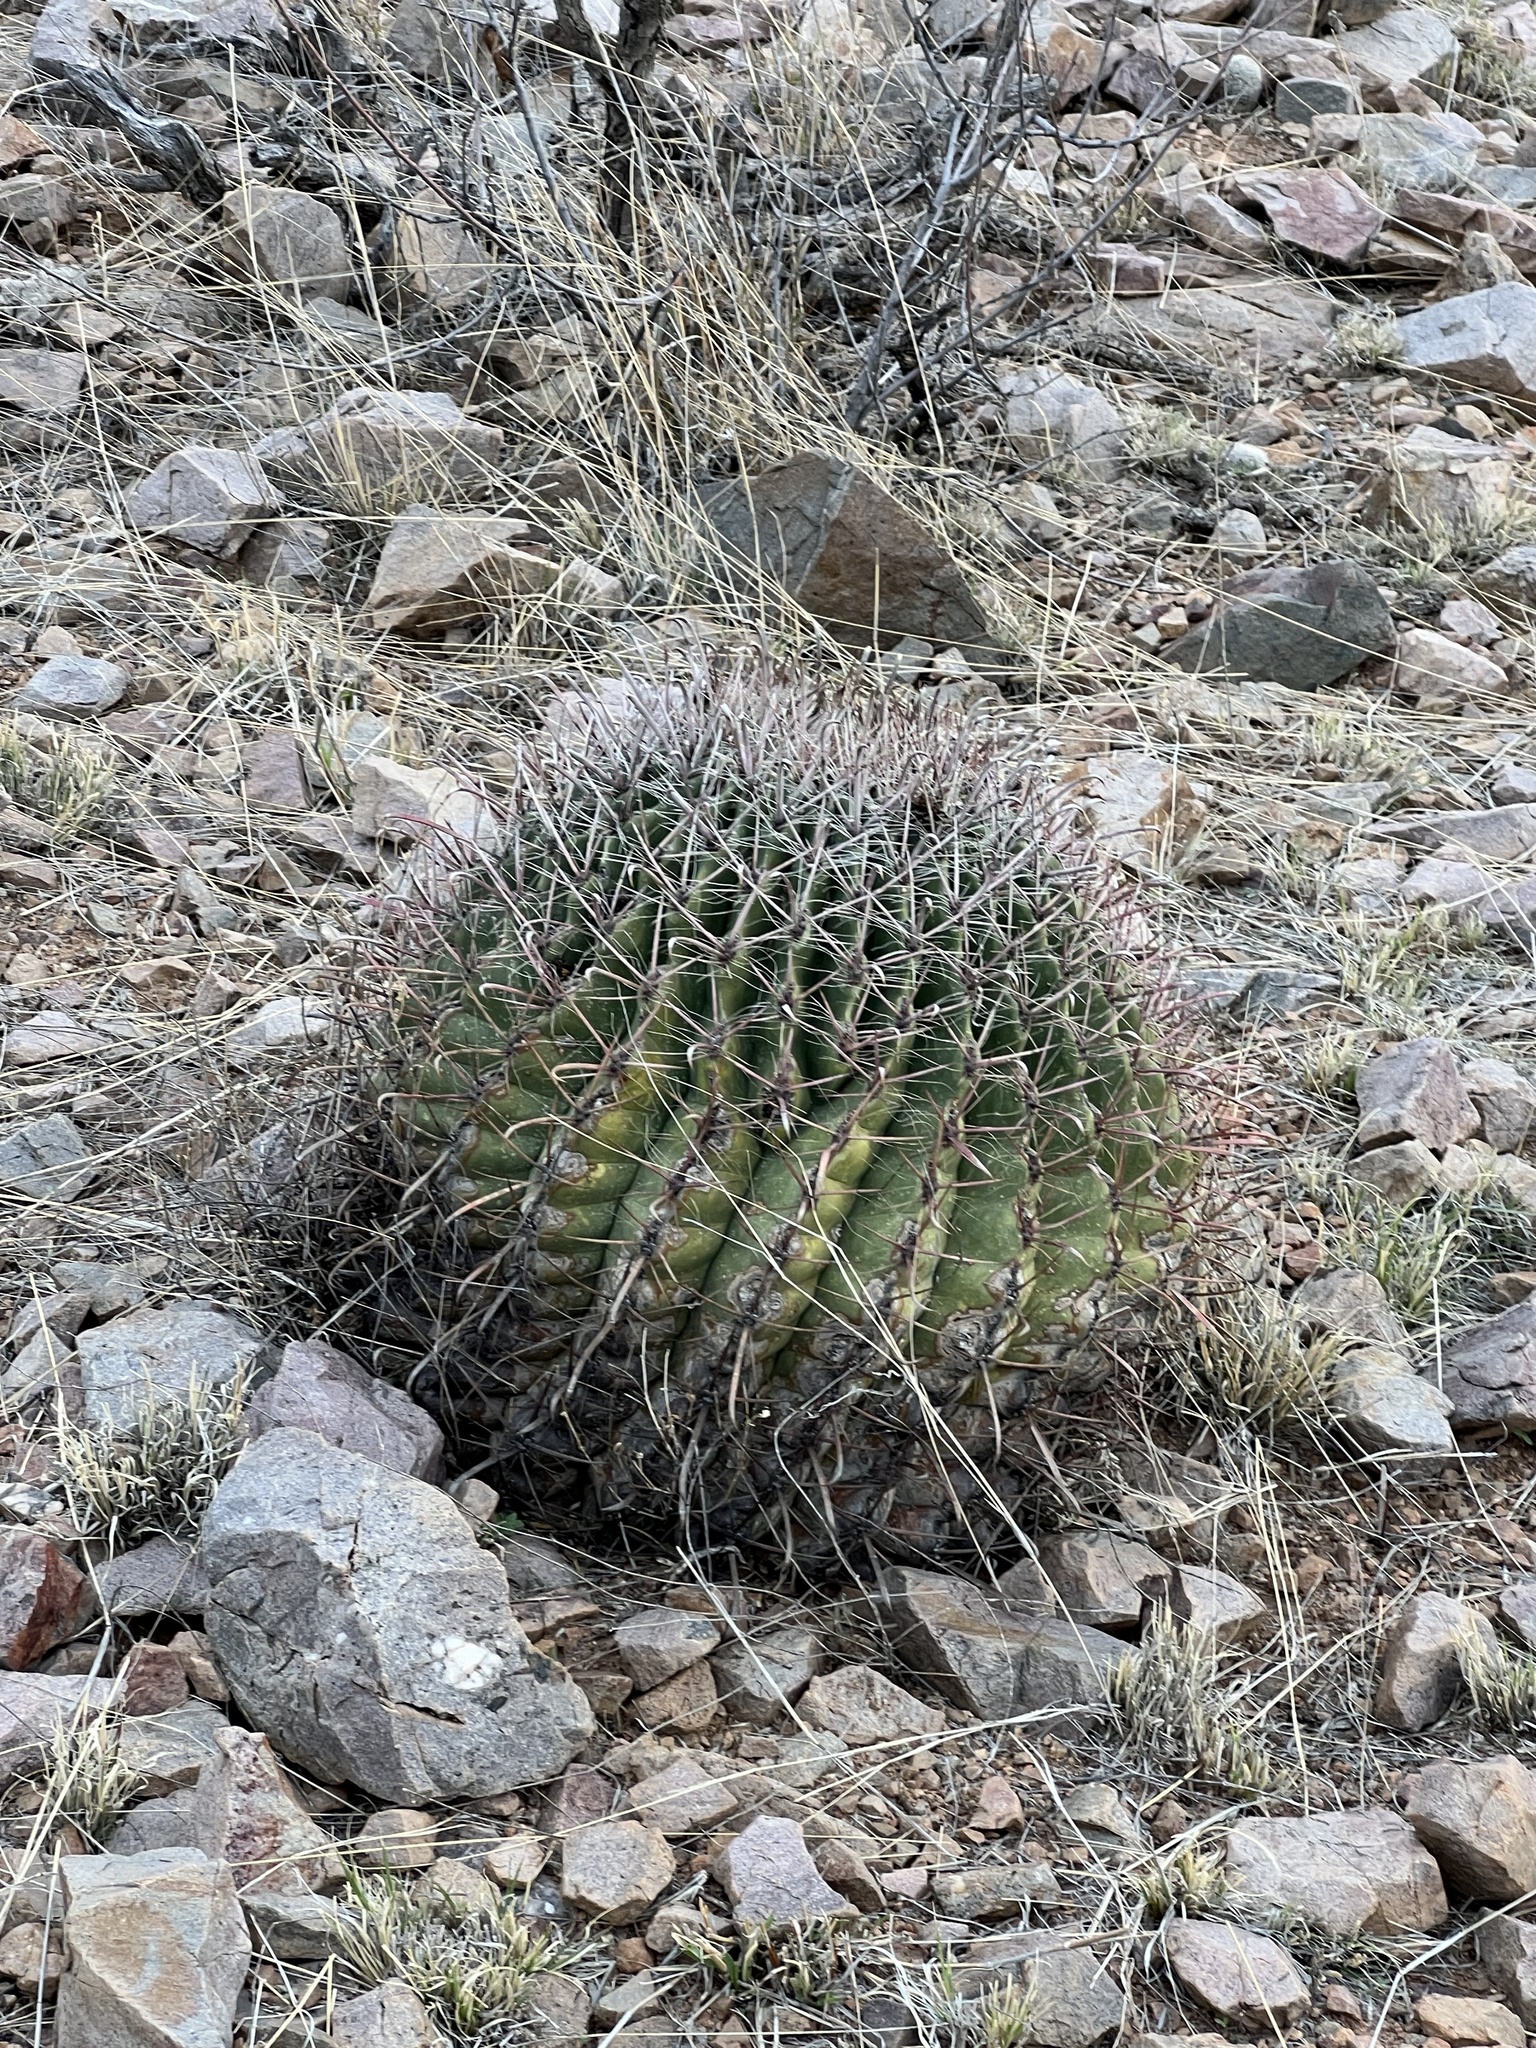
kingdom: Plantae
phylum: Tracheophyta
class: Magnoliopsida
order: Caryophyllales
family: Cactaceae
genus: Ferocactus
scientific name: Ferocactus wislizeni
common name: Candy barrel cactus
